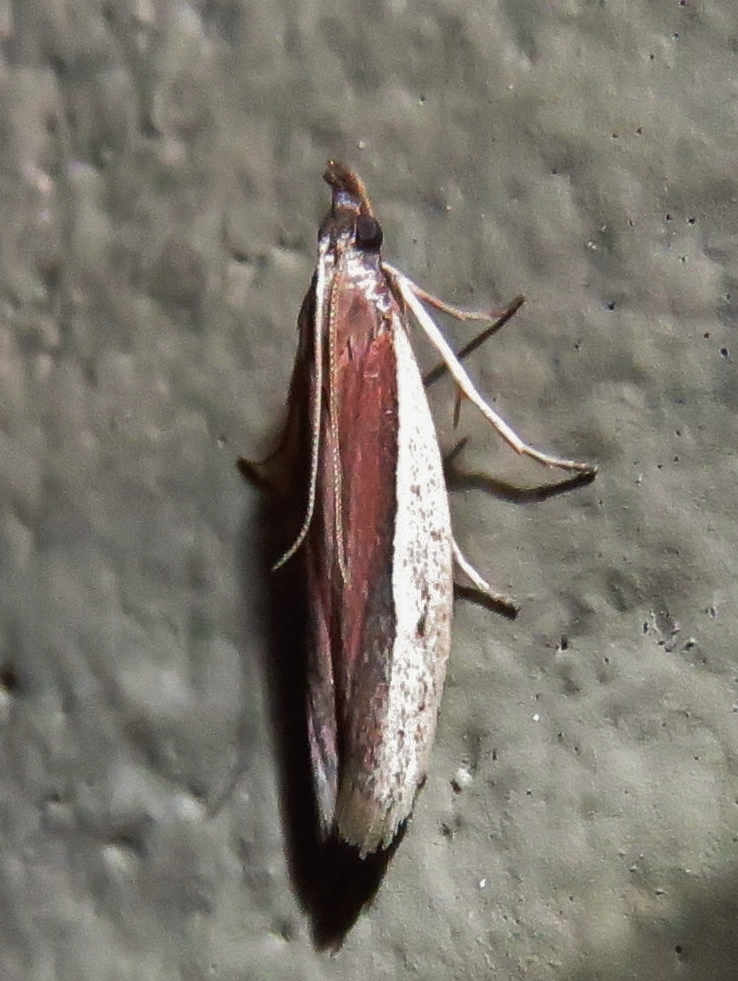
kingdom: Animalia
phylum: Arthropoda
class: Insecta
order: Lepidoptera
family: Pyralidae
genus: Tampa
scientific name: Tampa dimediatella
